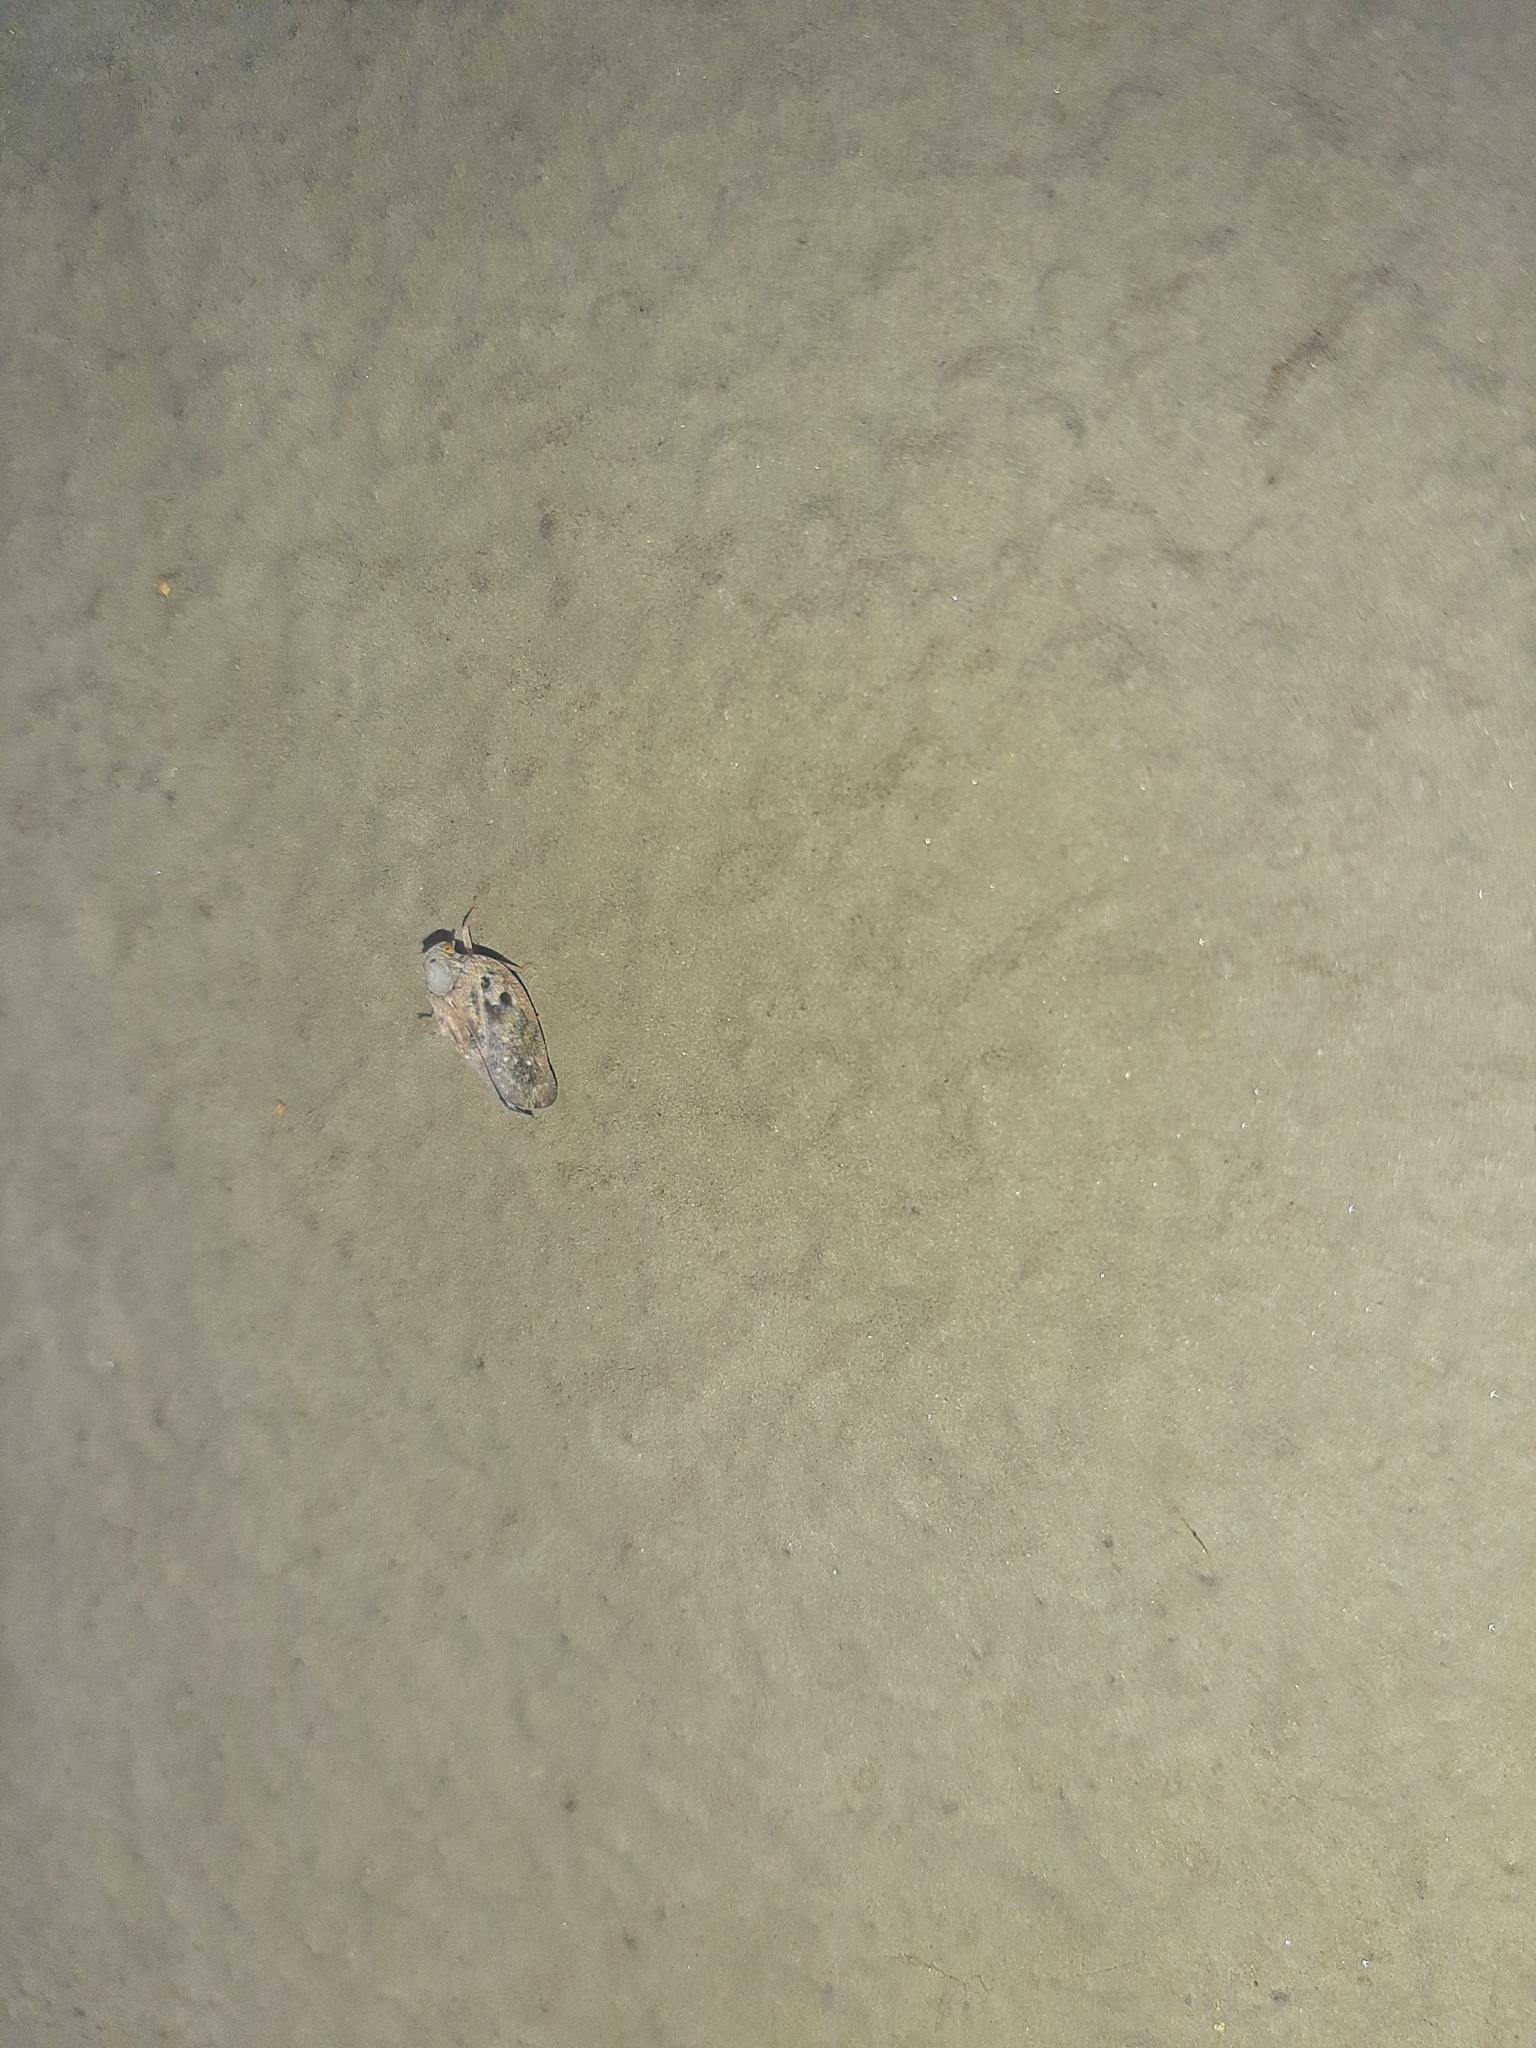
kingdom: Animalia
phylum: Arthropoda
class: Insecta
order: Hemiptera
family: Flatidae
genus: Metcalfa
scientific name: Metcalfa pruinosa
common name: Citrus flatid planthopper
